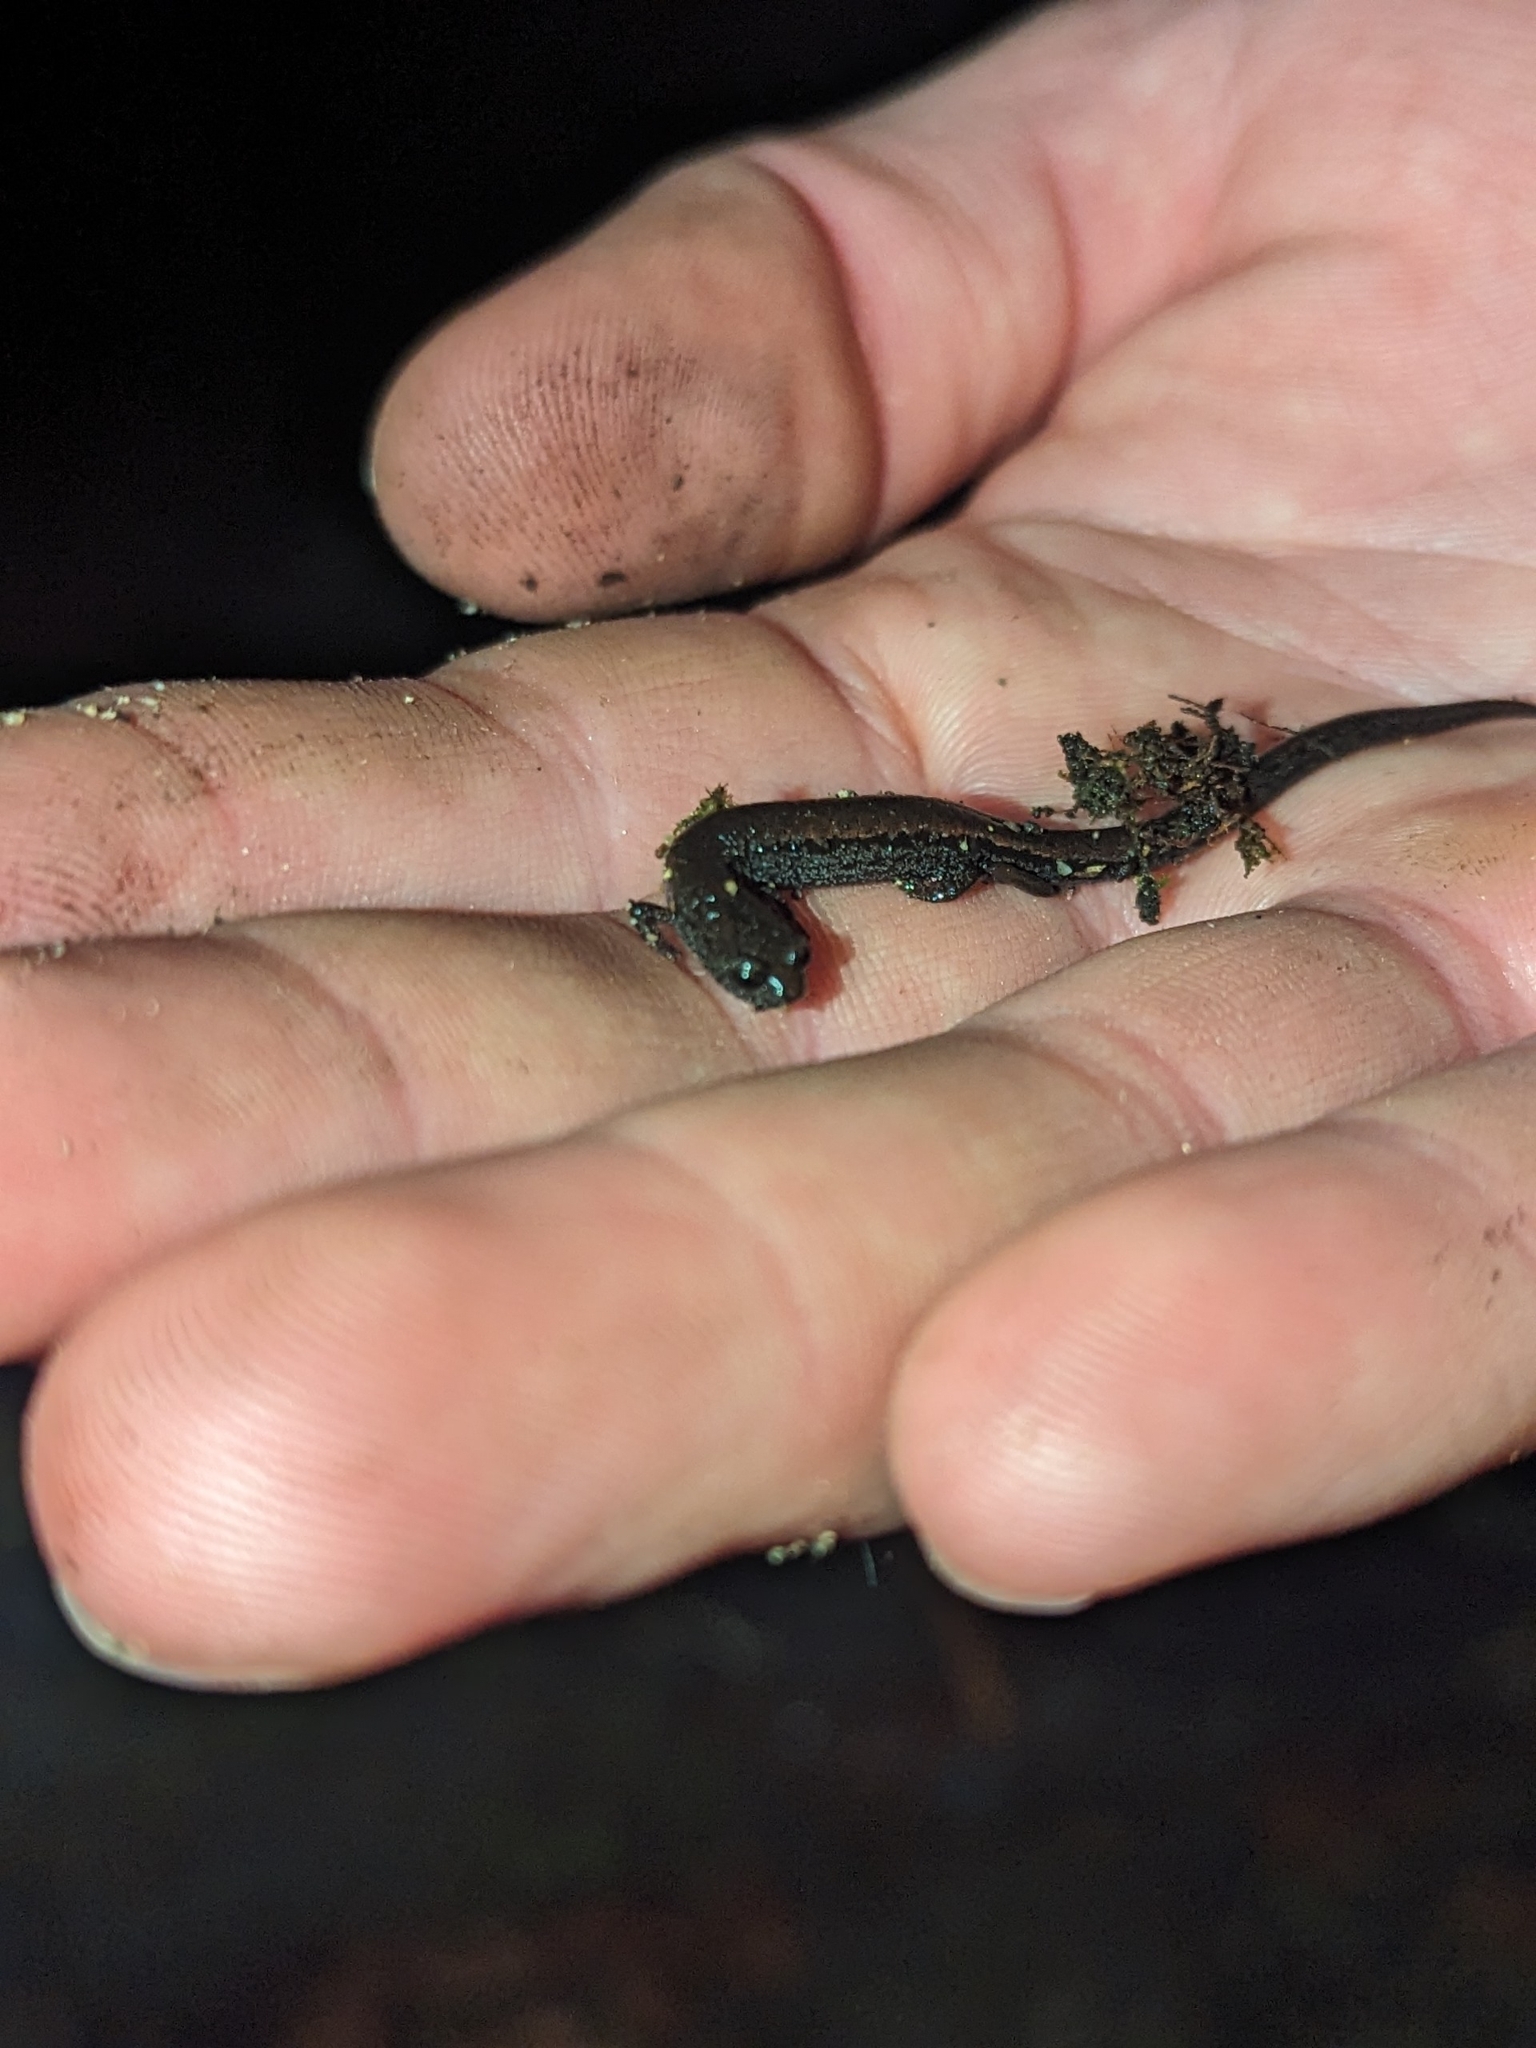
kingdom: Animalia
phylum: Chordata
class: Amphibia
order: Caudata
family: Plethodontidae
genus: Batrachoseps
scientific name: Batrachoseps luciae
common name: Santa lucia mountains slender salamander
